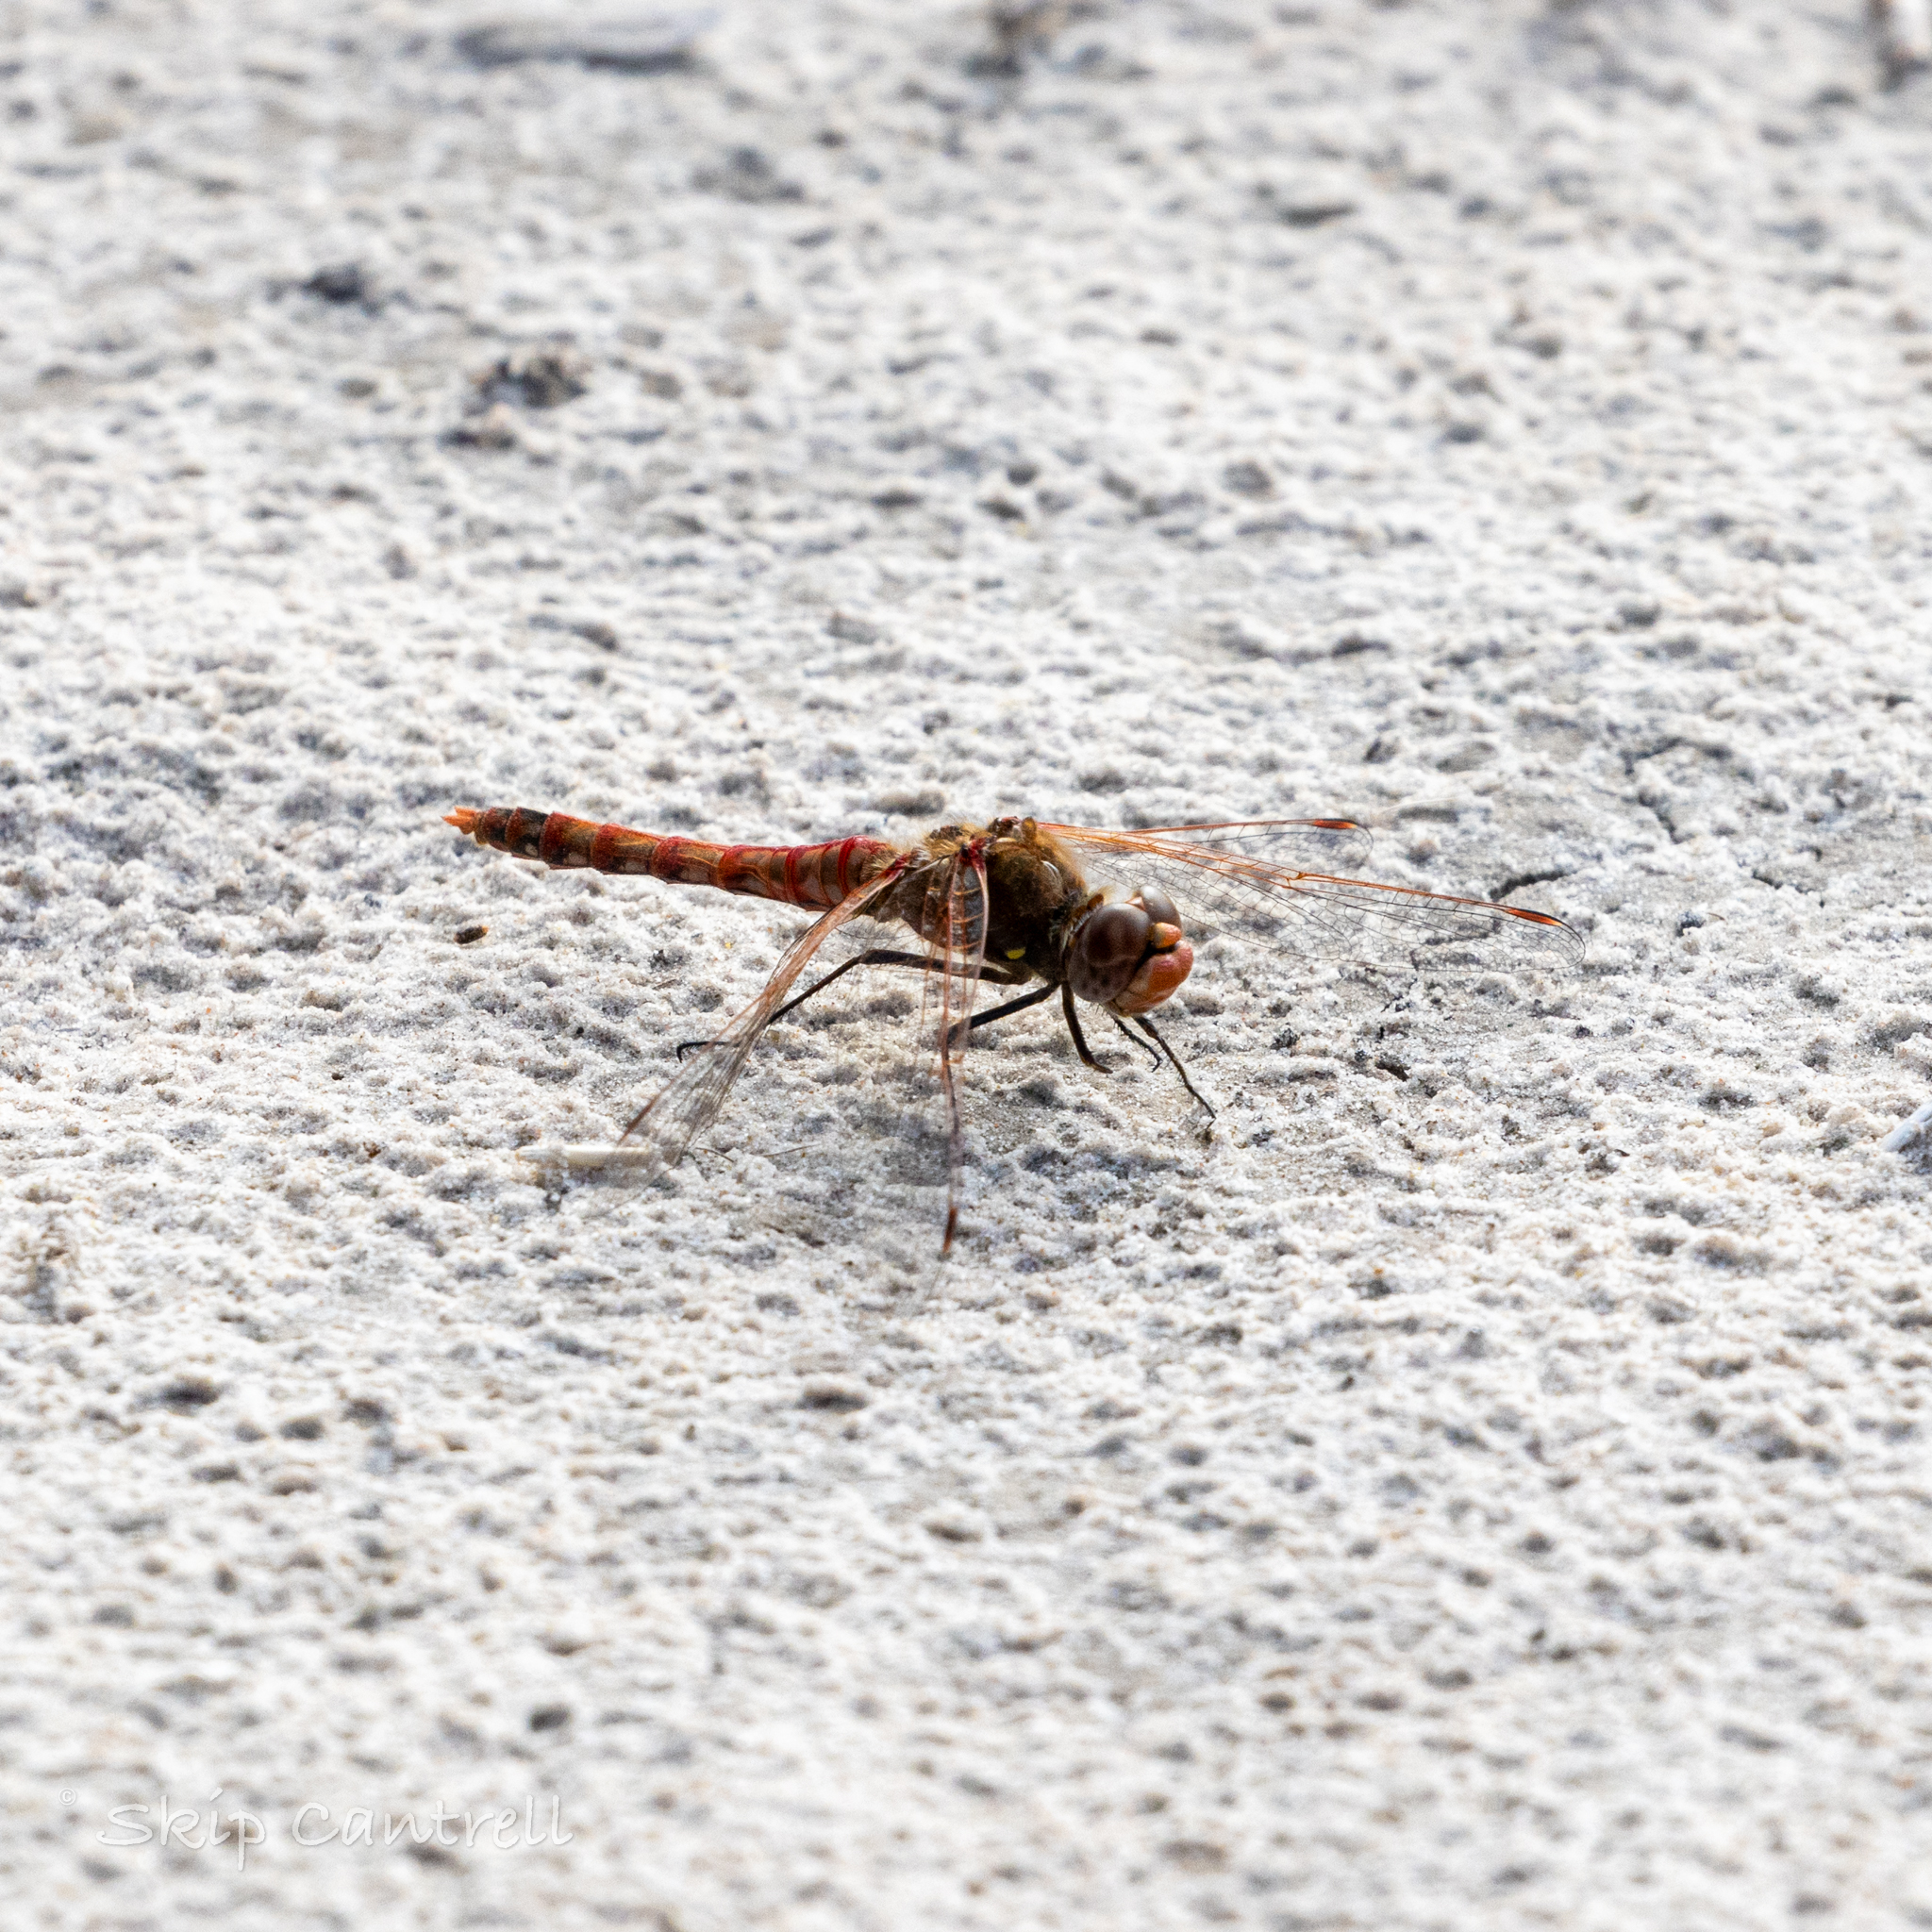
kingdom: Animalia
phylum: Arthropoda
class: Insecta
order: Odonata
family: Libellulidae
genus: Sympetrum
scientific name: Sympetrum corruptum
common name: Variegated meadowhawk
